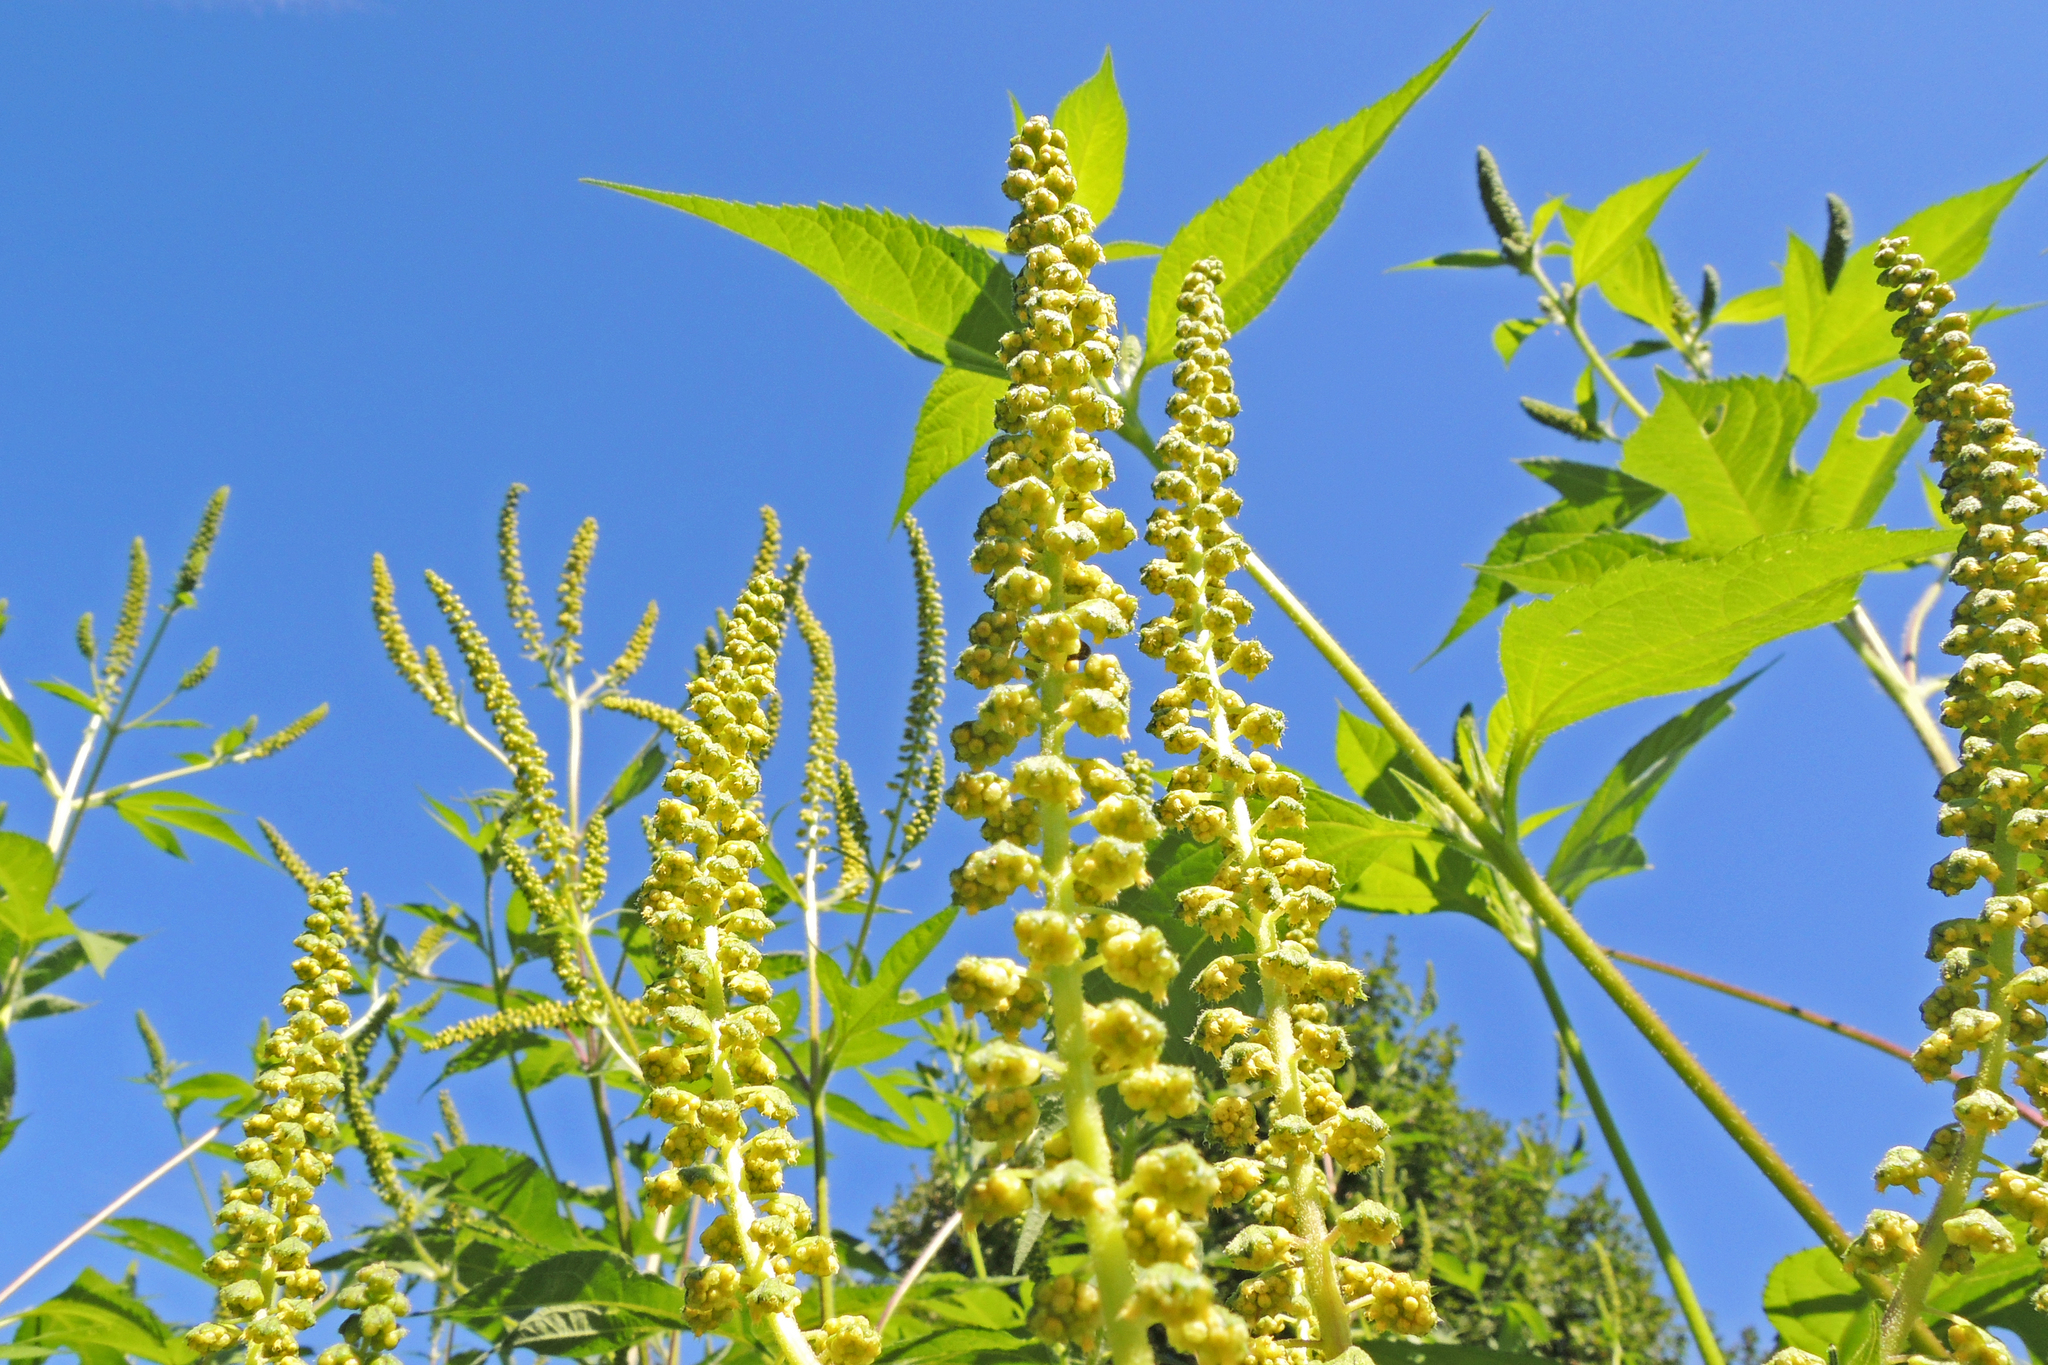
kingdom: Plantae
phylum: Tracheophyta
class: Magnoliopsida
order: Asterales
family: Asteraceae
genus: Ambrosia
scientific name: Ambrosia trifida
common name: Giant ragweed
